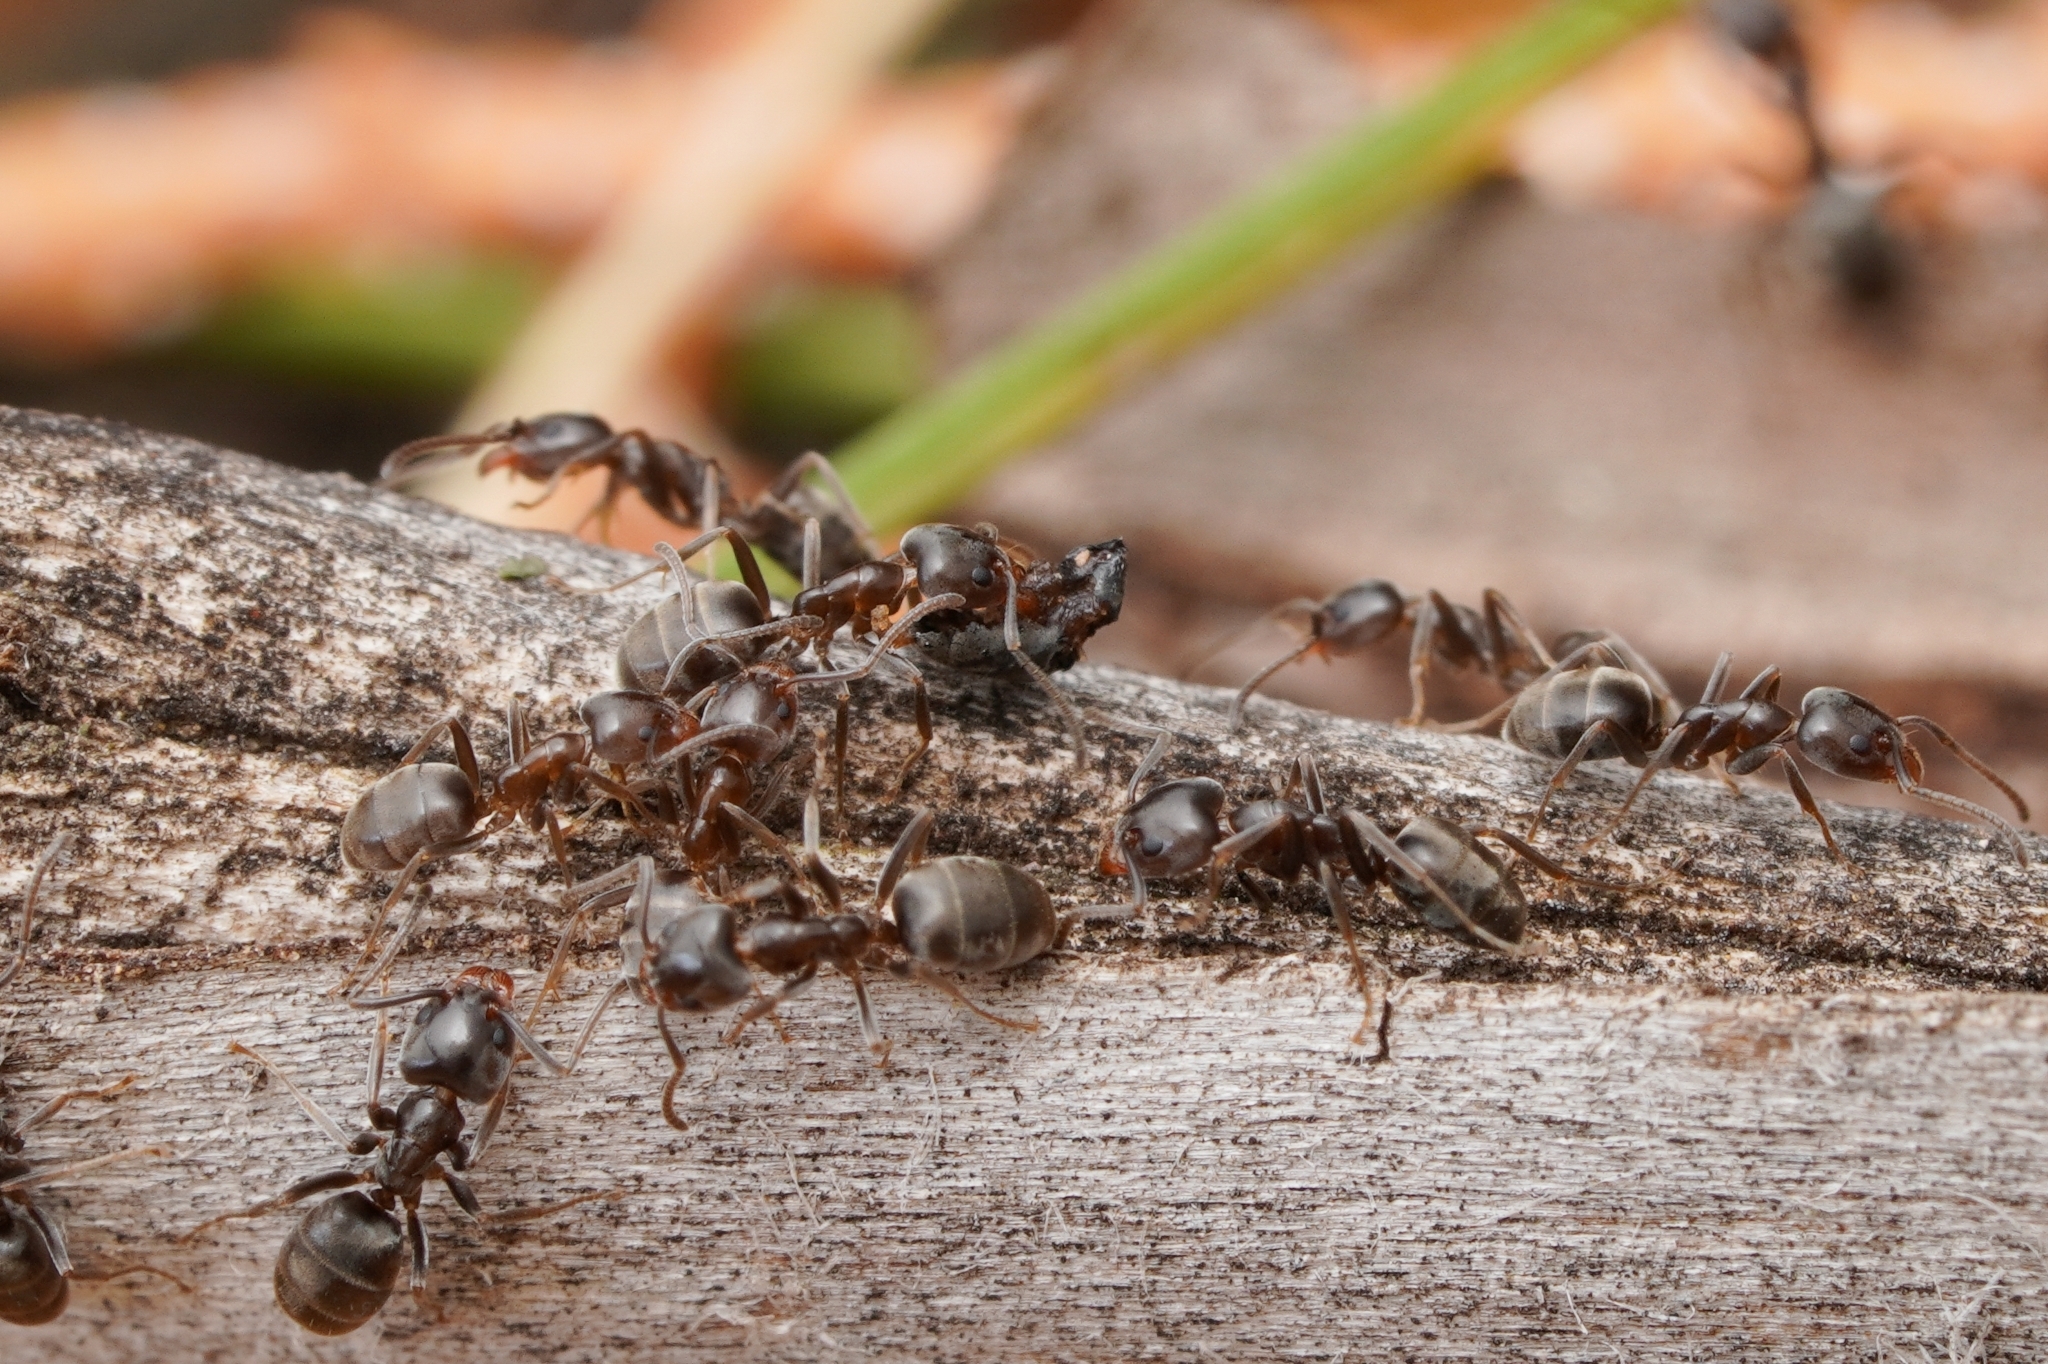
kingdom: Animalia
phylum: Arthropoda
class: Insecta
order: Hymenoptera
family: Formicidae
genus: Liometopum
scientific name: Liometopum luctuosum
